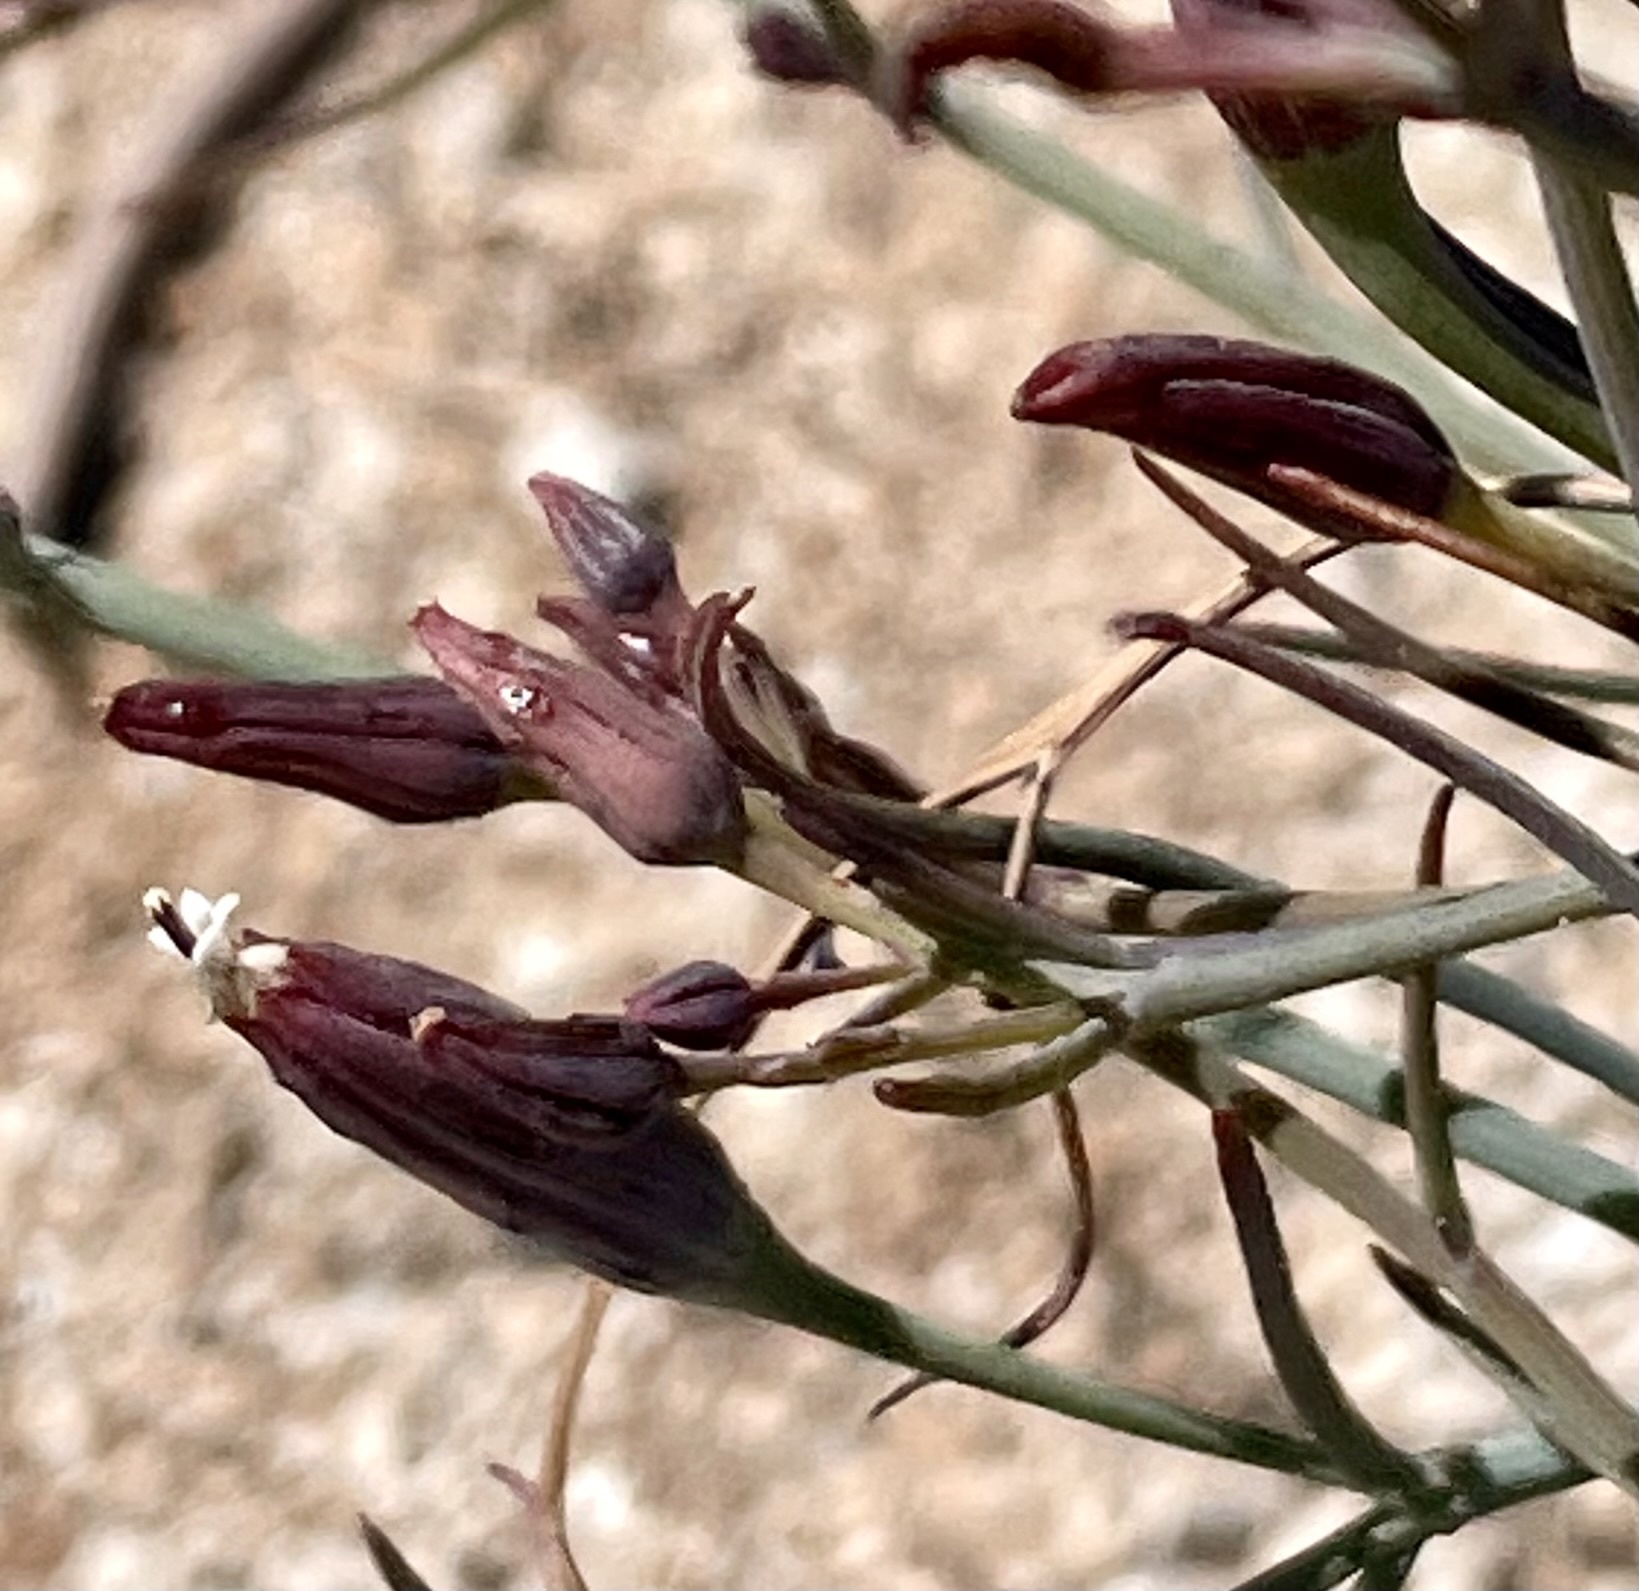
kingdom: Plantae
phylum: Tracheophyta
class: Magnoliopsida
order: Asterales
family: Asteraceae
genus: Porophyllum
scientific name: Porophyllum gracile
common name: Odora
